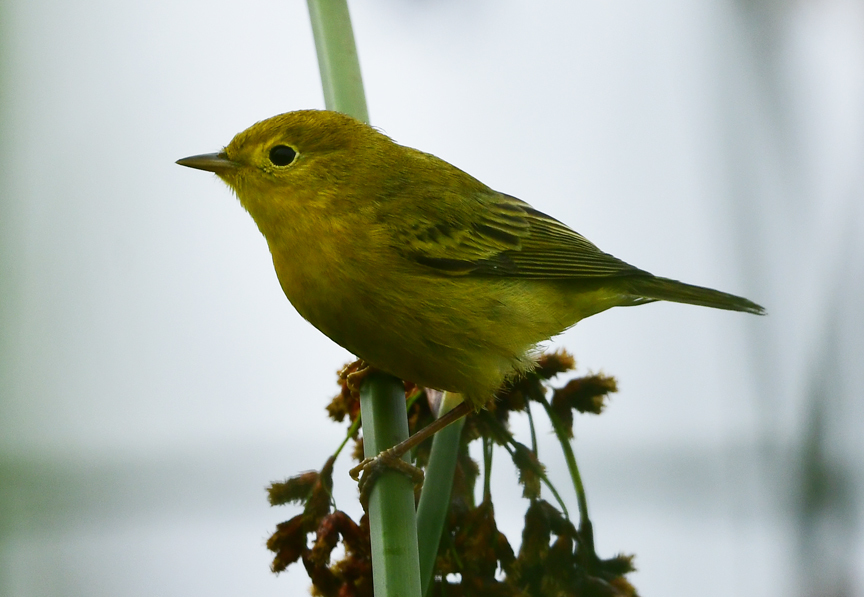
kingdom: Animalia
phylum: Chordata
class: Aves
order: Passeriformes
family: Parulidae
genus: Setophaga
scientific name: Setophaga petechia
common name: Yellow warbler
